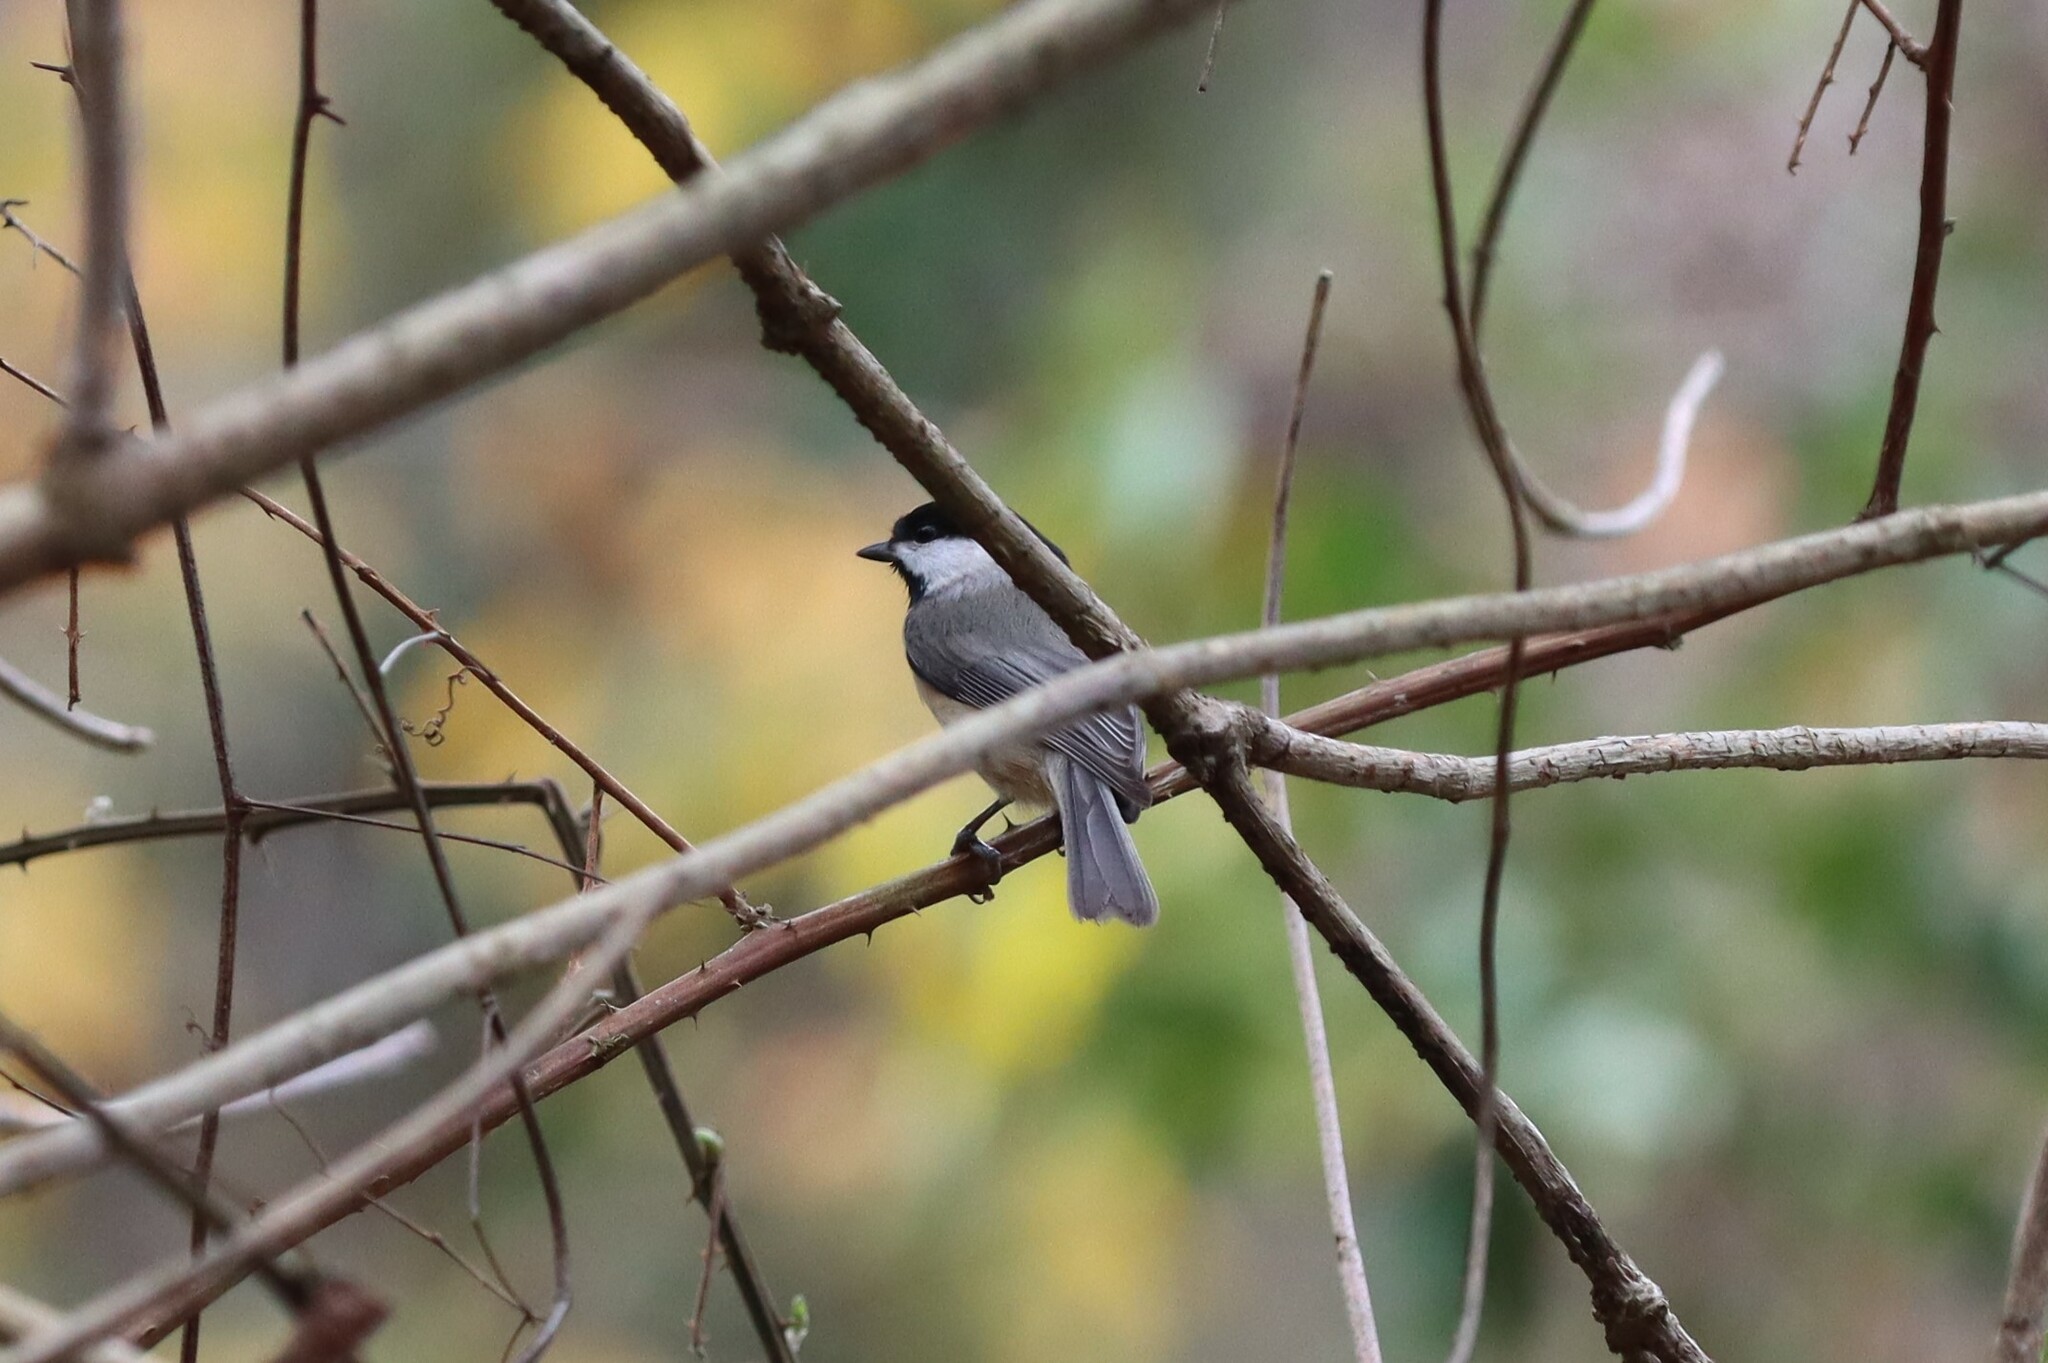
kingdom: Animalia
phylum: Chordata
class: Aves
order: Passeriformes
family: Paridae
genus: Poecile
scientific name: Poecile carolinensis
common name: Carolina chickadee
